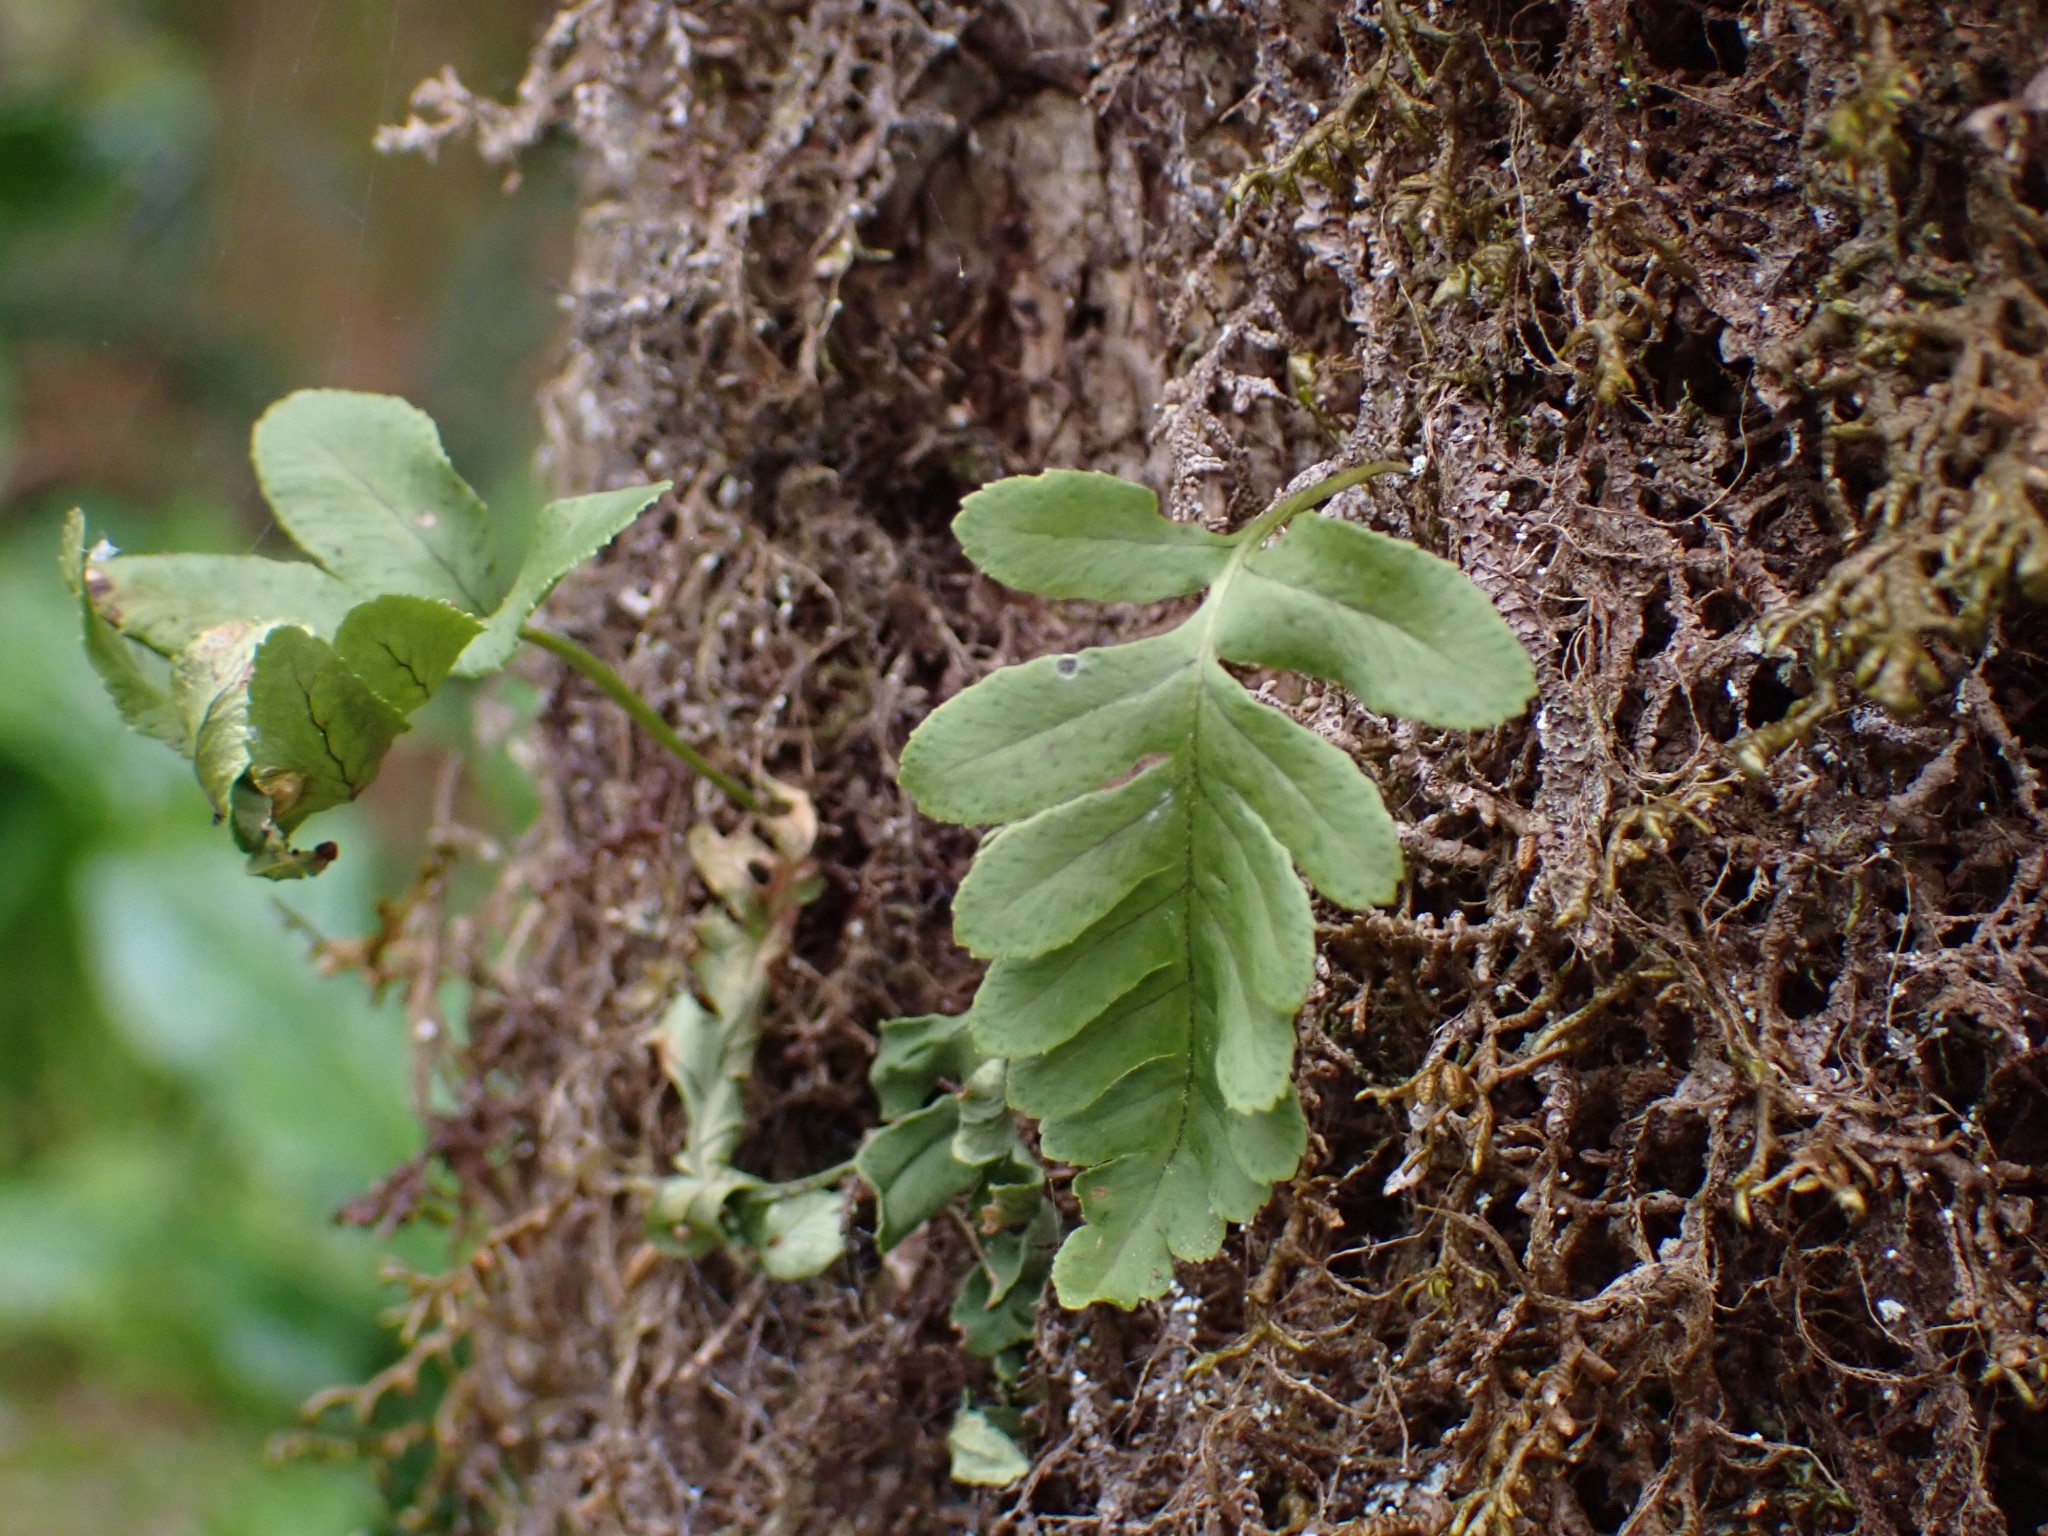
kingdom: Plantae
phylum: Tracheophyta
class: Polypodiopsida
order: Polypodiales
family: Polypodiaceae
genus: Polypodium
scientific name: Polypodium glycyrrhiza
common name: Licorice fern
